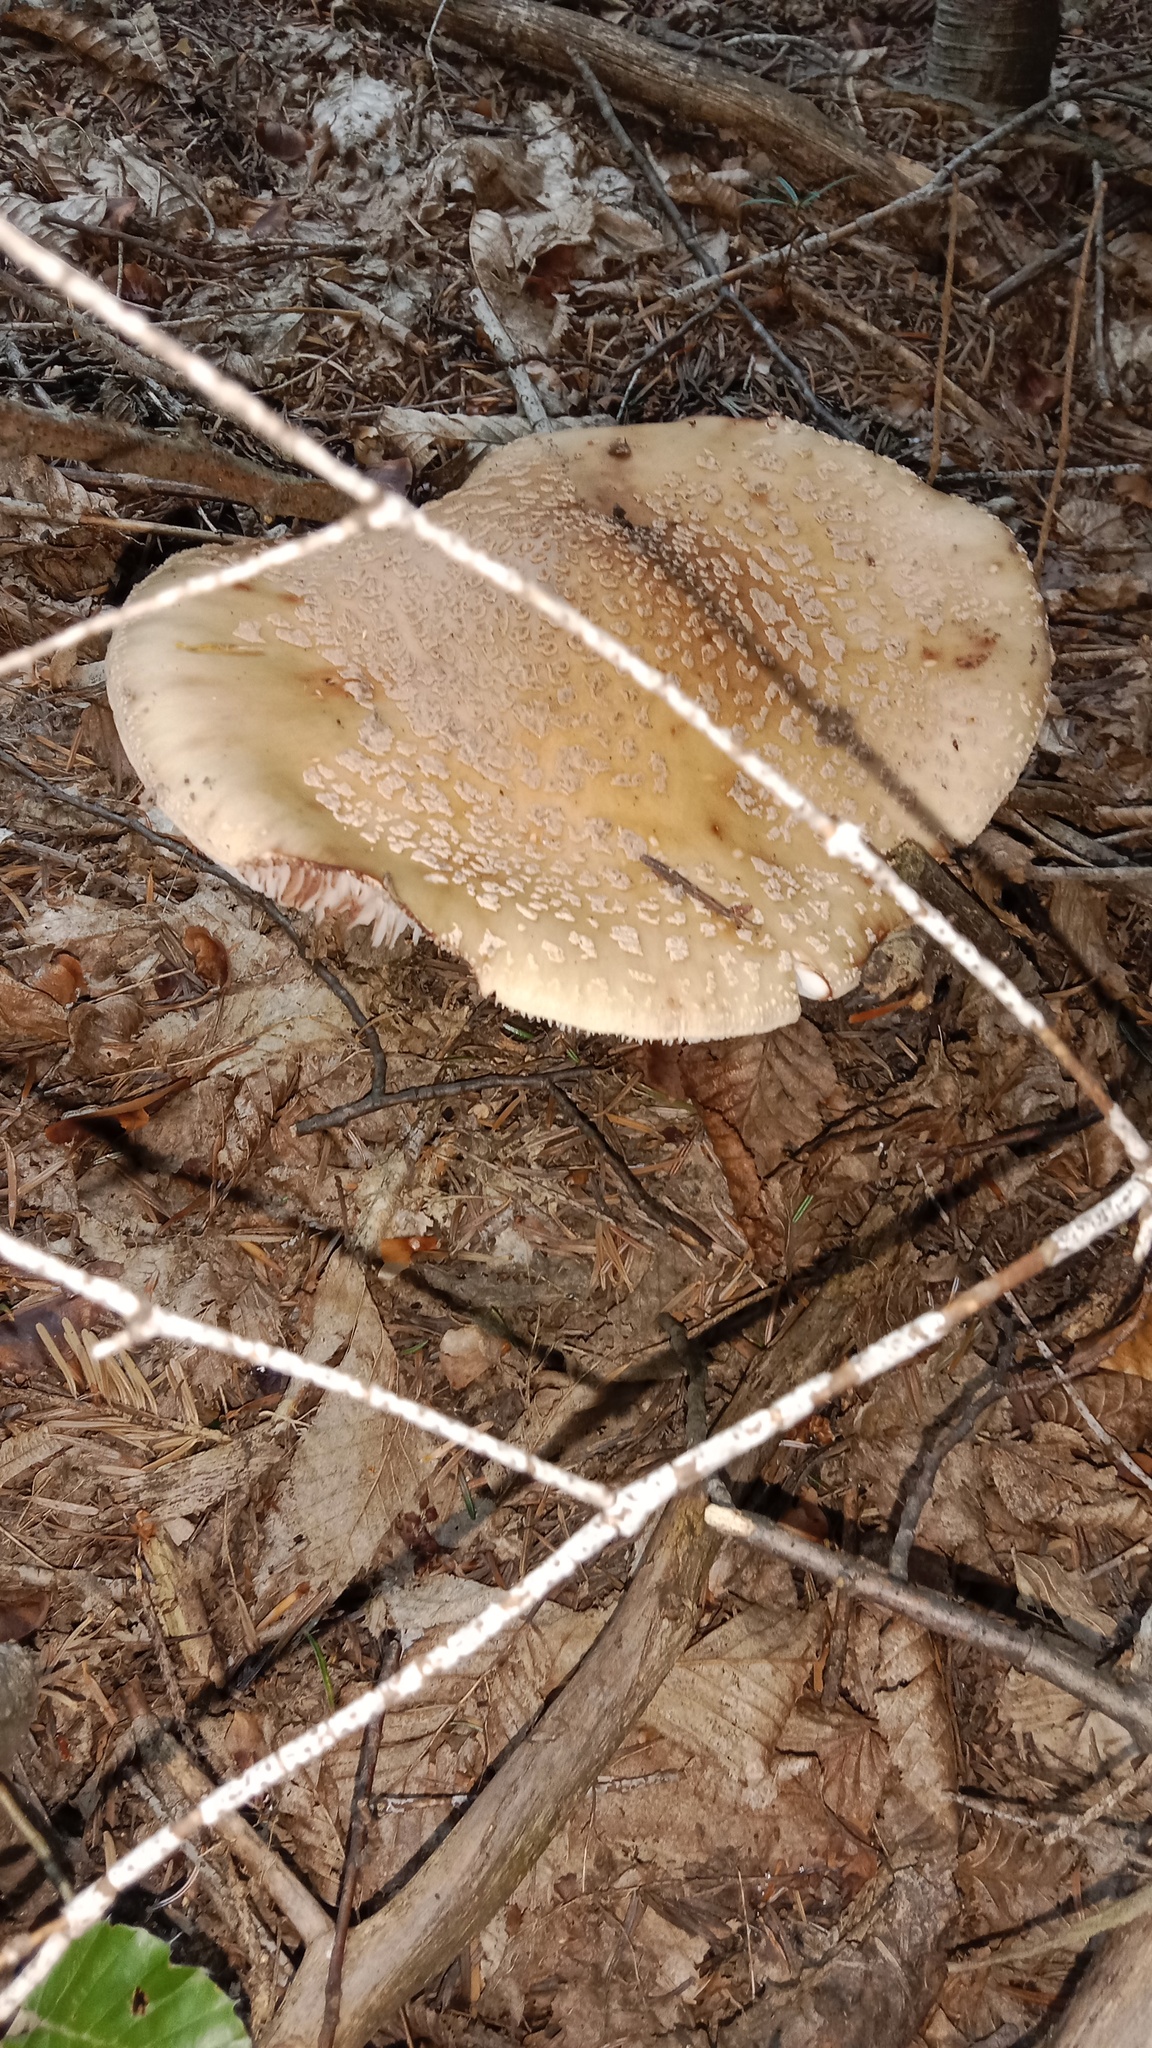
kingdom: Fungi
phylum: Basidiomycota
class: Agaricomycetes
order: Agaricales
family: Amanitaceae
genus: Amanita
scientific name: Amanita rubescens
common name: Blusher
